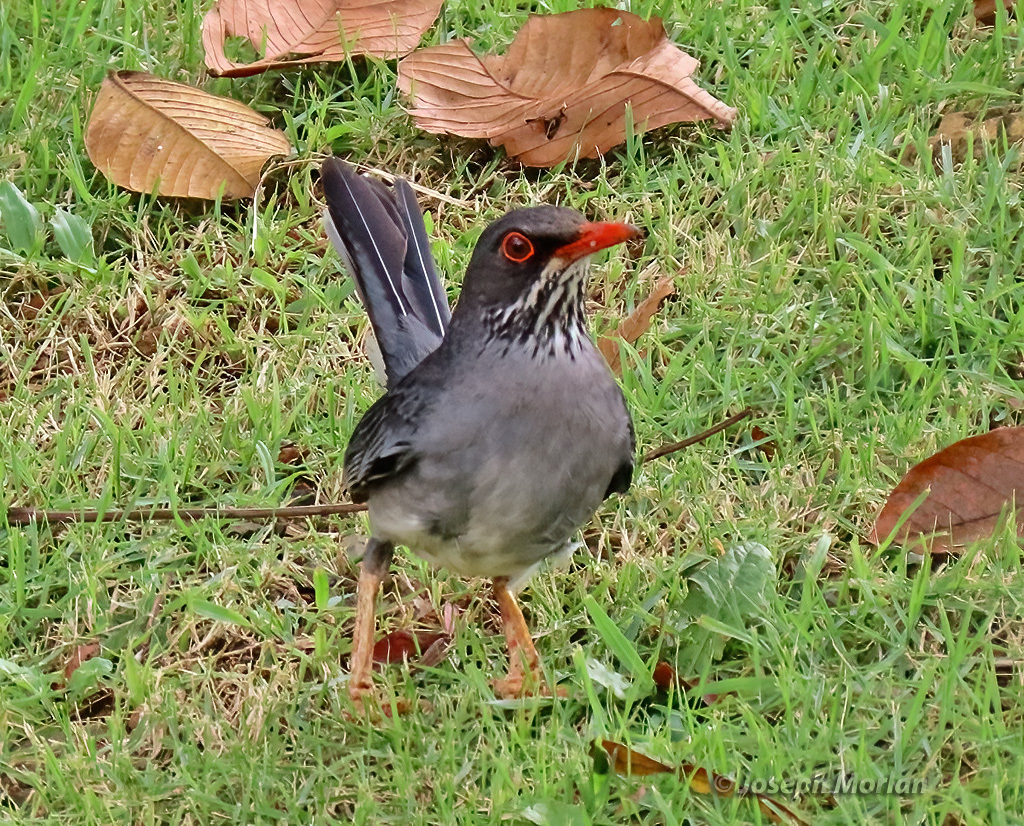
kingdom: Animalia
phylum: Chordata
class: Aves
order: Passeriformes
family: Turdidae
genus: Turdus
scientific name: Turdus plumbeus
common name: Red-legged thrush
